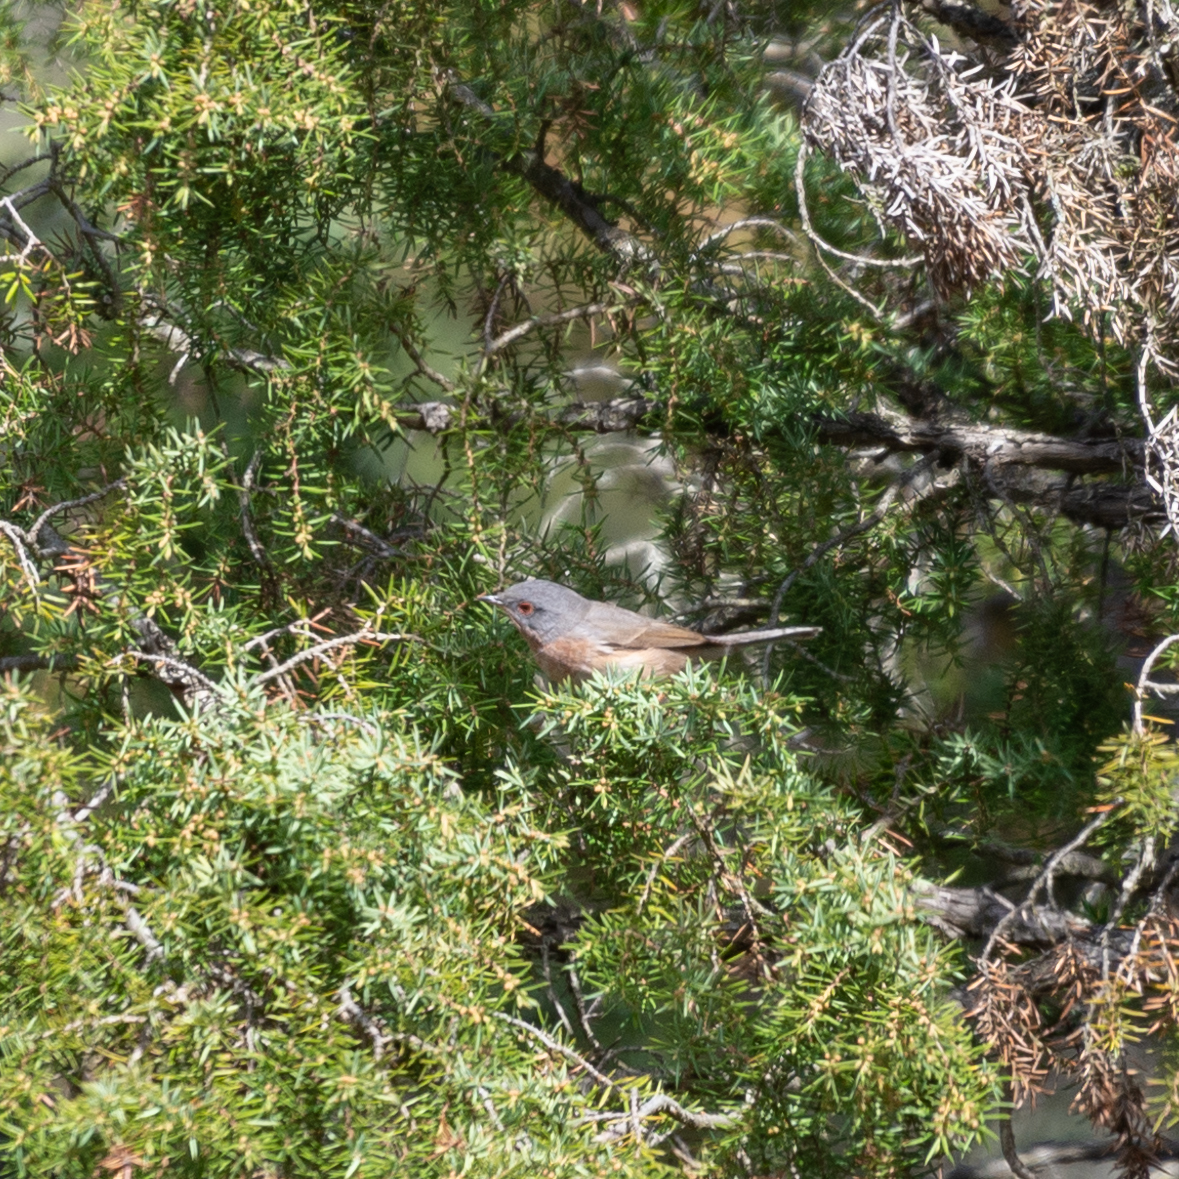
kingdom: Animalia
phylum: Chordata
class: Aves
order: Passeriformes
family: Sylviidae
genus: Curruca
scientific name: Curruca iberiae
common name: Western subalpine warbler
